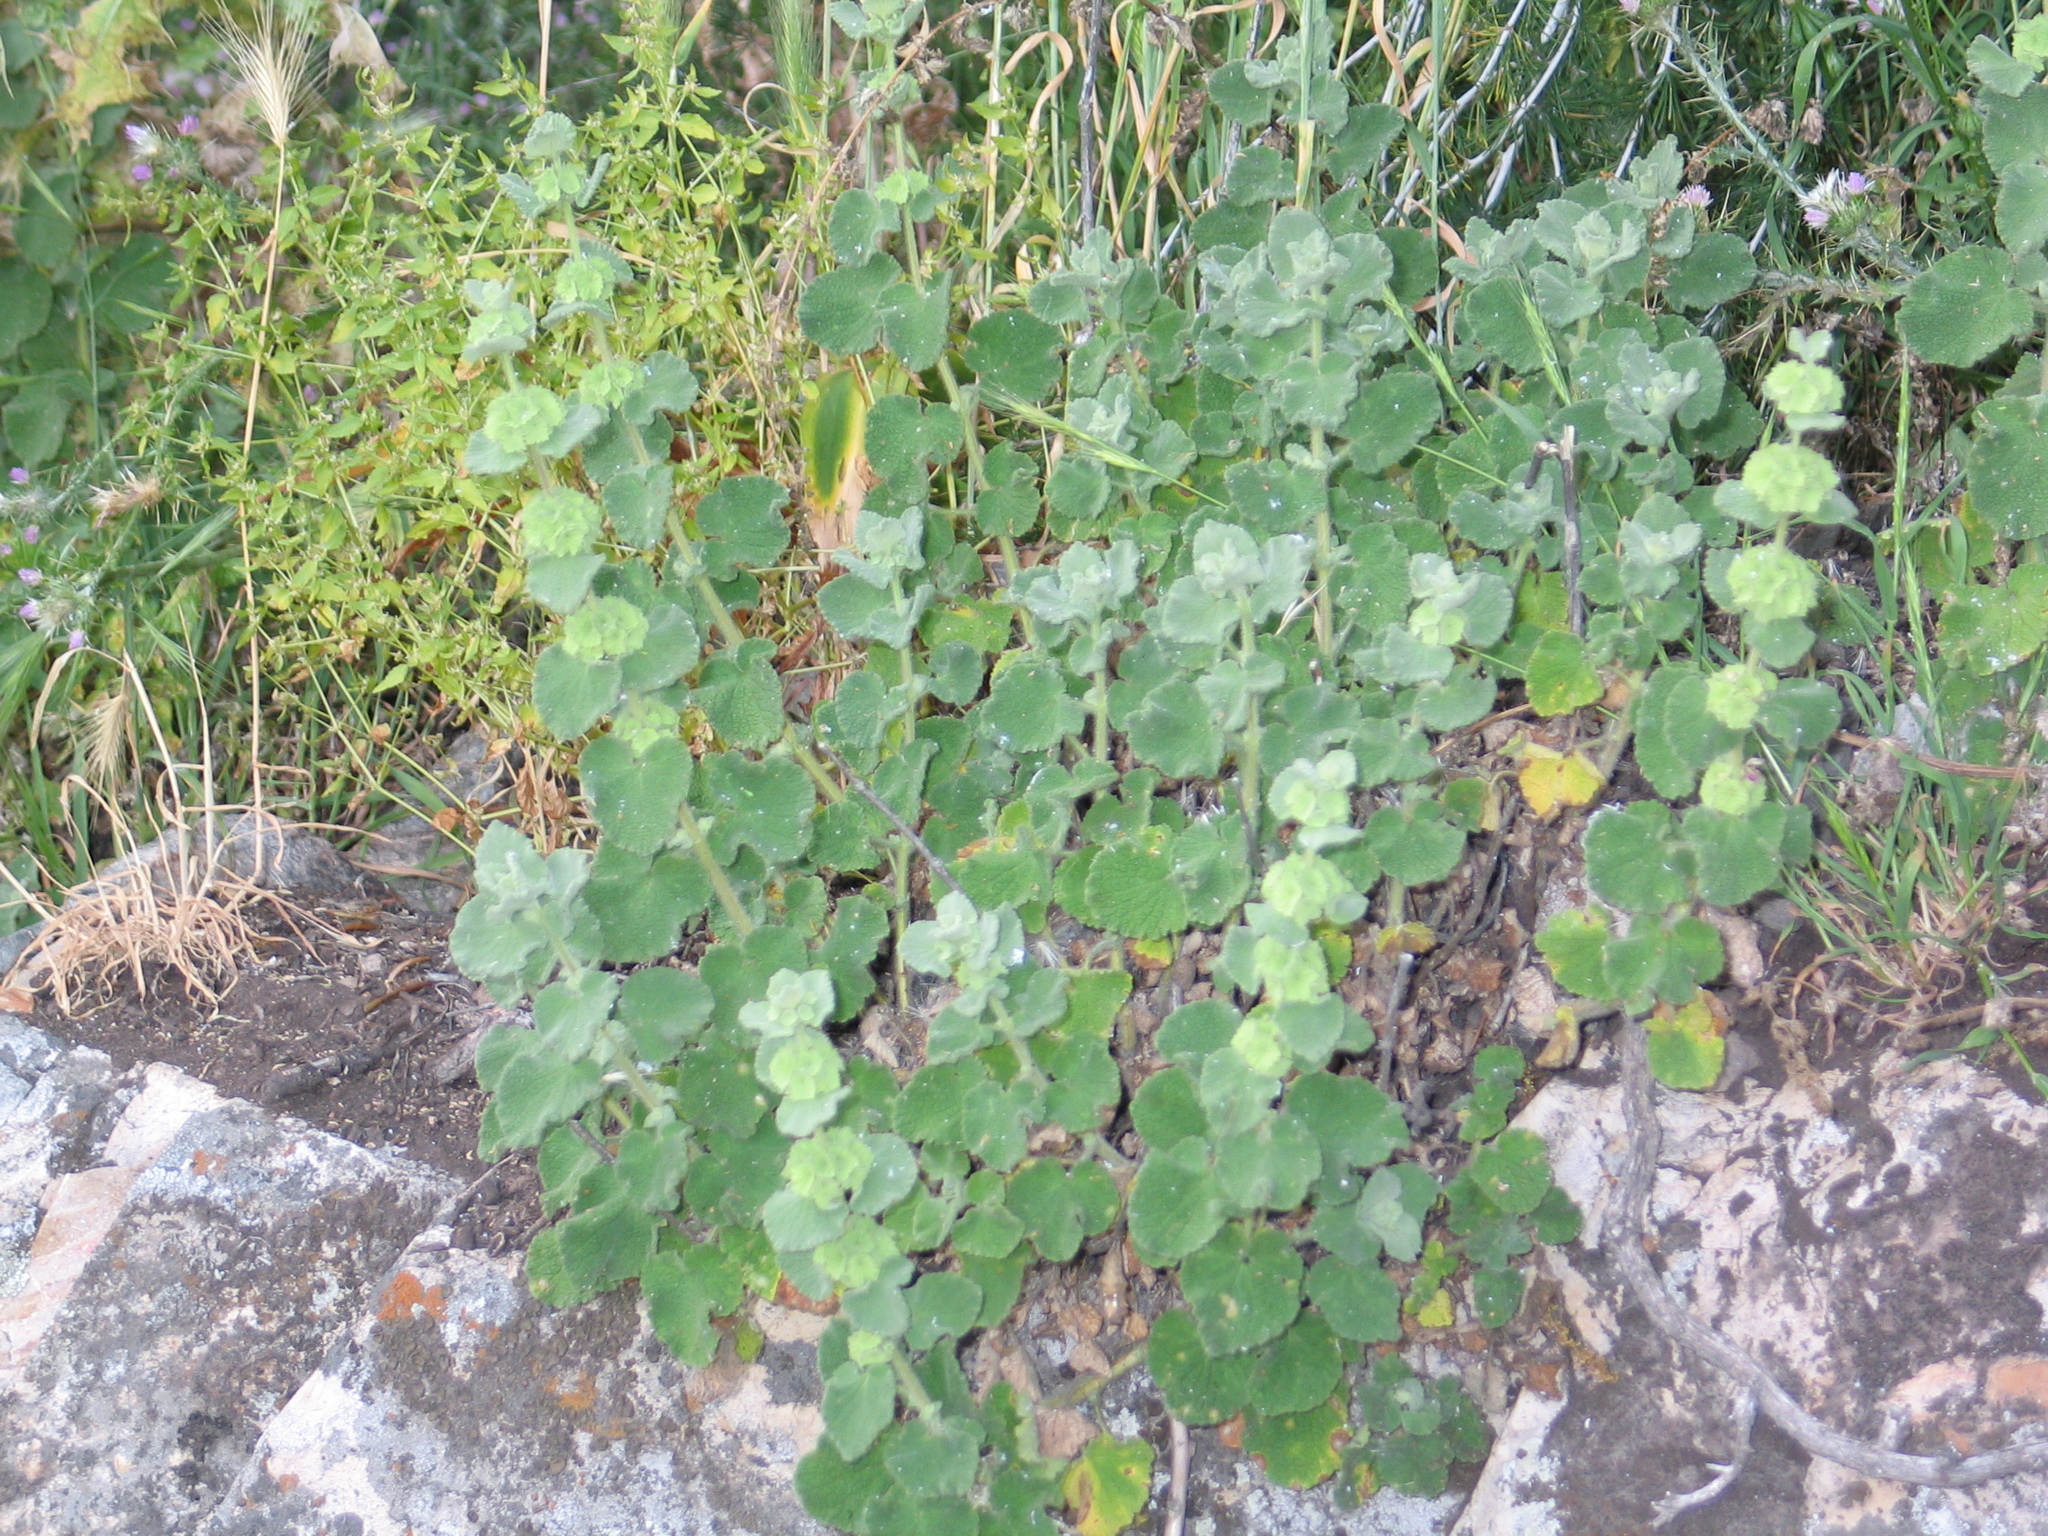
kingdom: Plantae
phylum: Tracheophyta
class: Magnoliopsida
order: Lamiales
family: Lamiaceae
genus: Marrubium
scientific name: Marrubium vulgare
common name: Horehound
